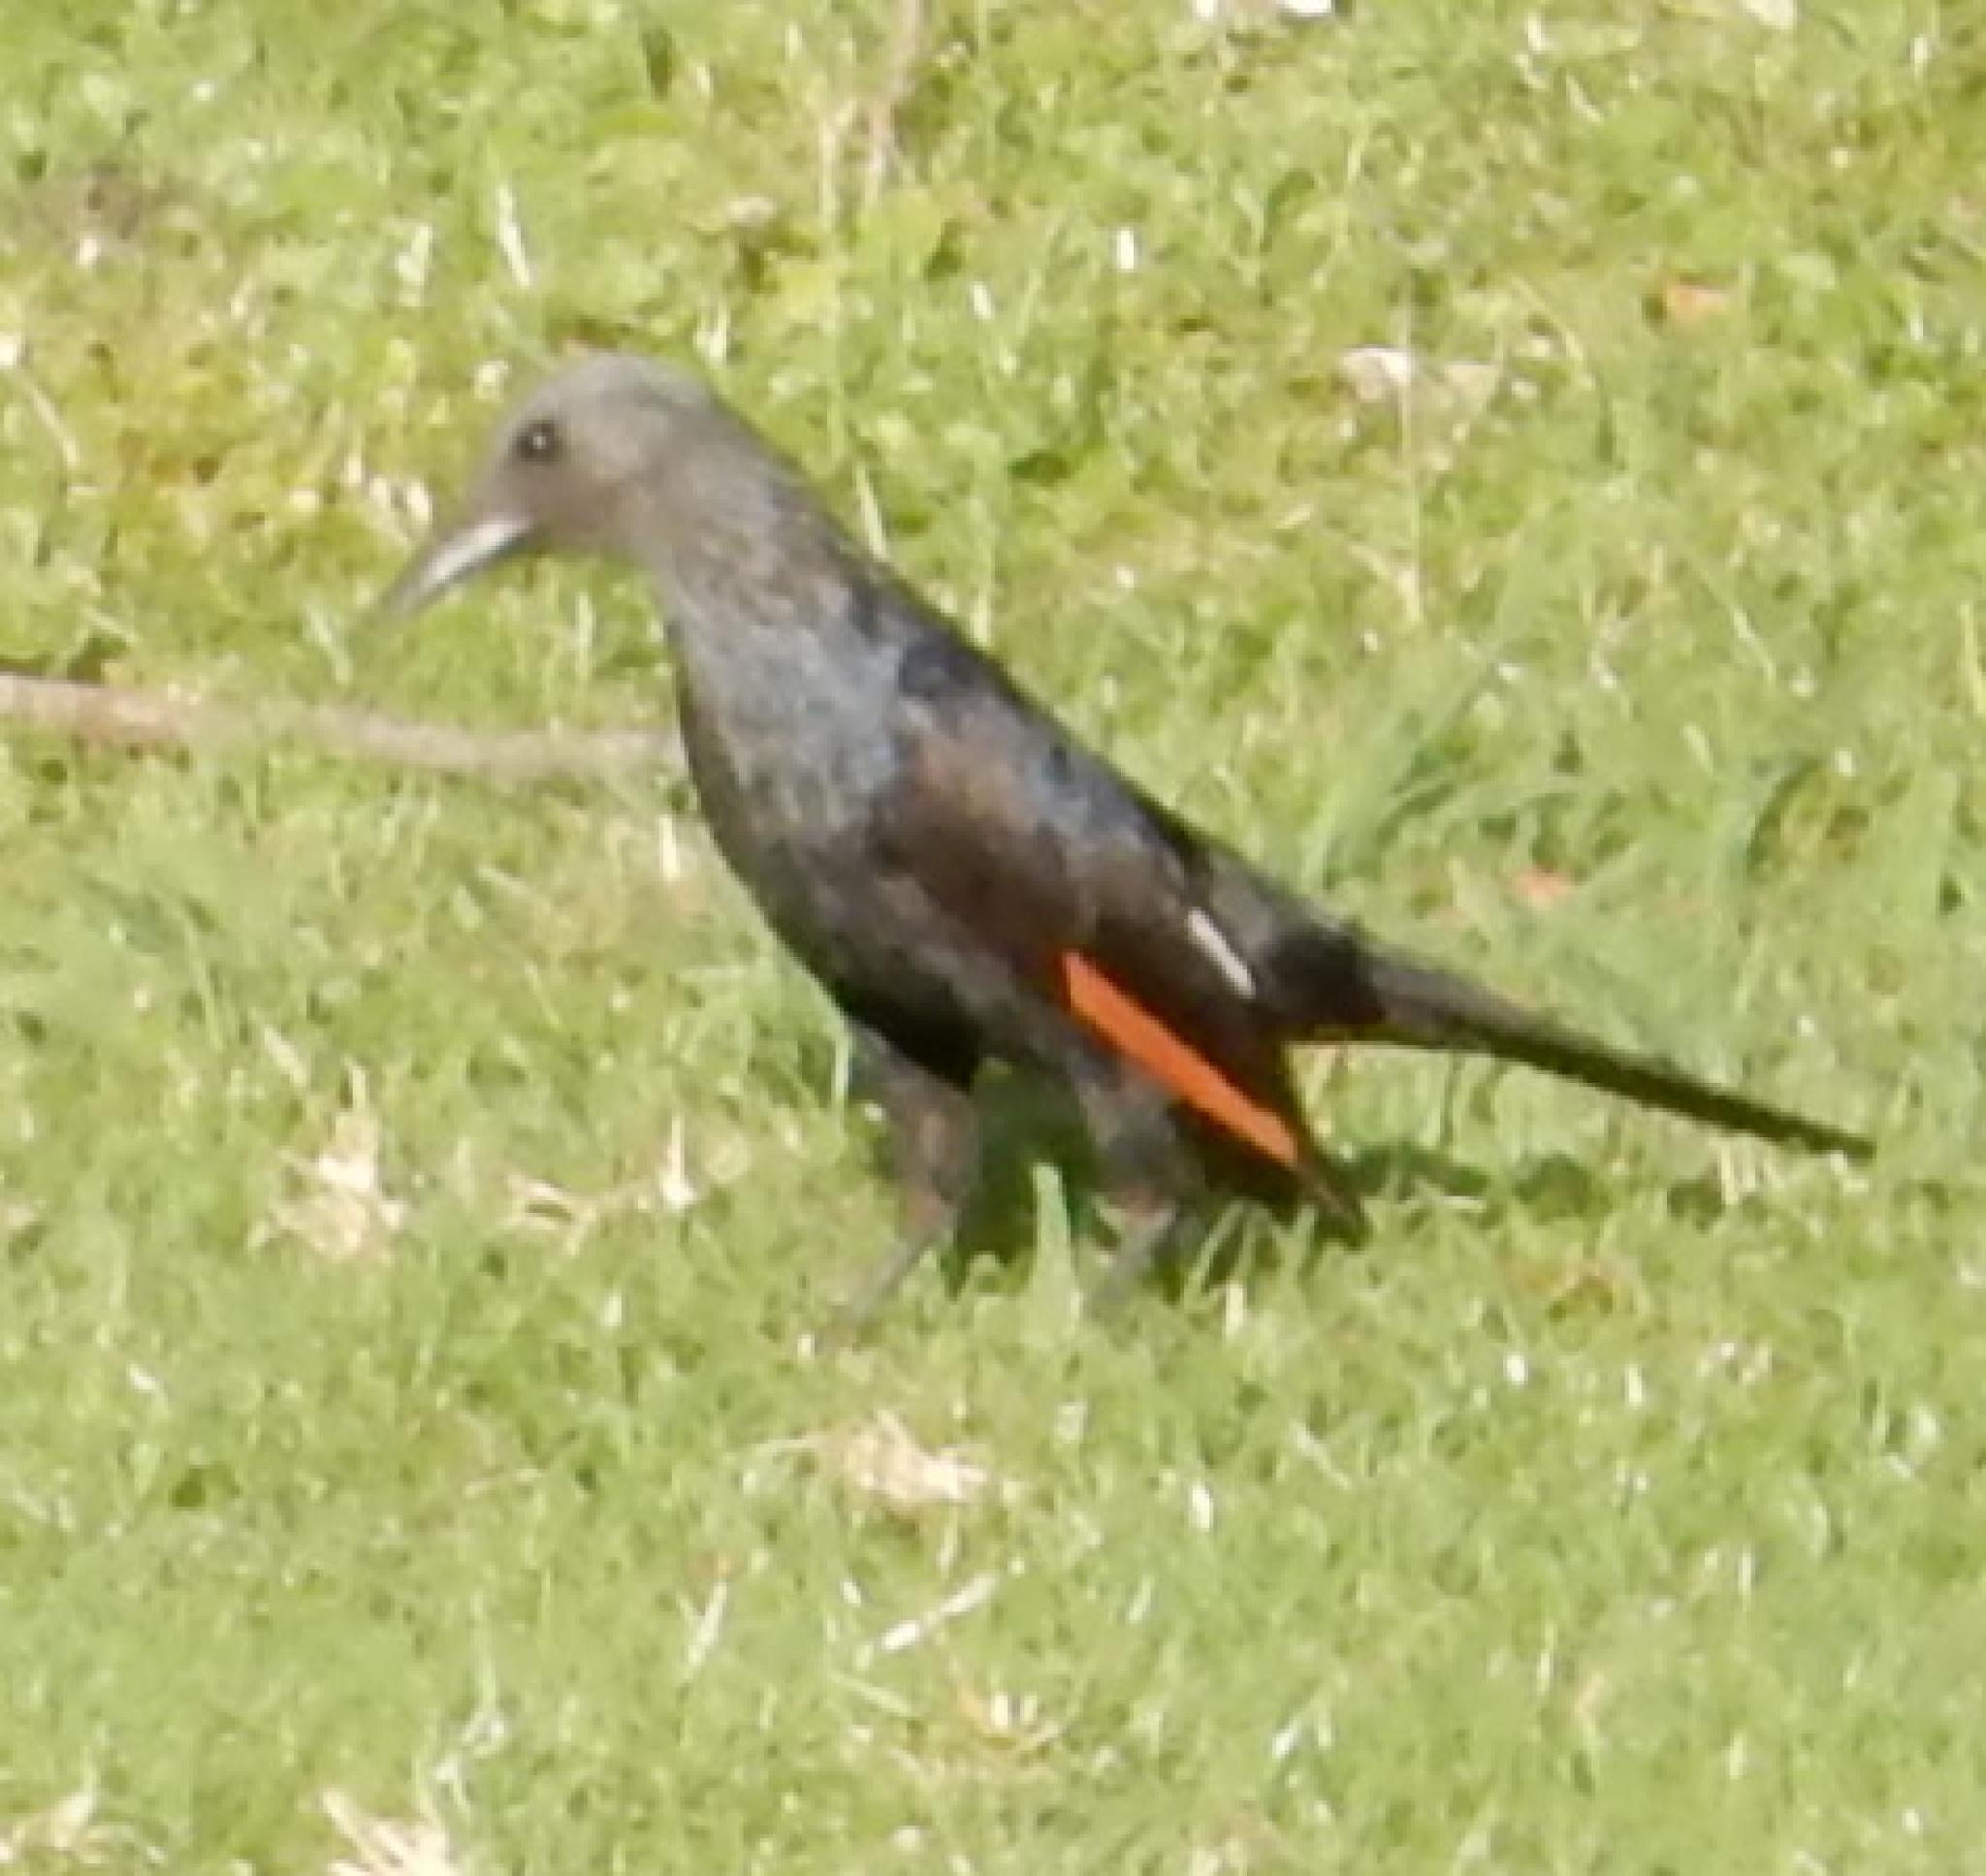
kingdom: Animalia
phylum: Chordata
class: Aves
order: Passeriformes
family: Sturnidae
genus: Onychognathus
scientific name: Onychognathus morio
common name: Red-winged starling
